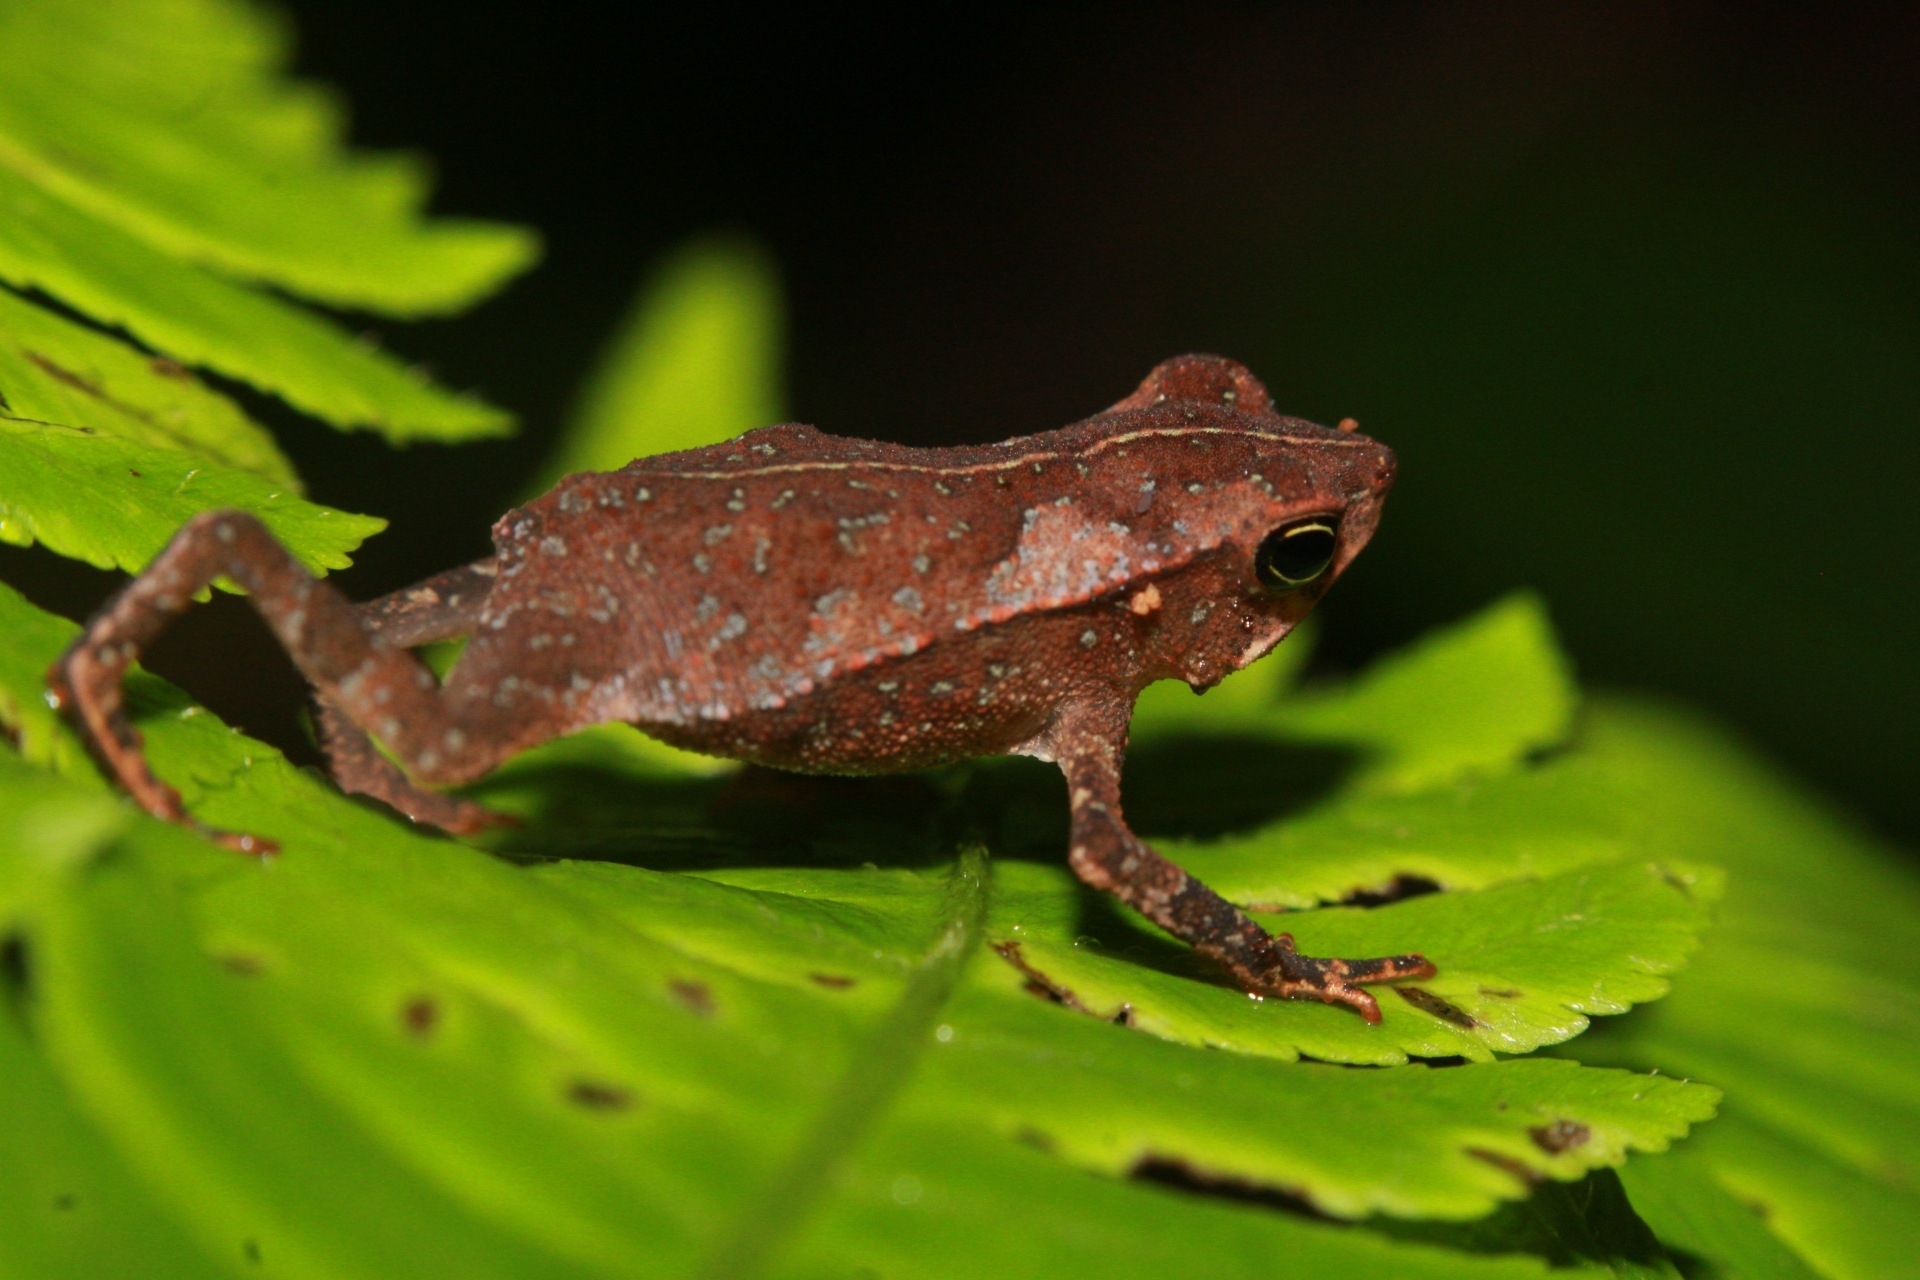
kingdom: Animalia
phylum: Chordata
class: Amphibia
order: Anura
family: Bufonidae
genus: Rhinella
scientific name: Rhinella margaritifera
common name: Mitred toad
